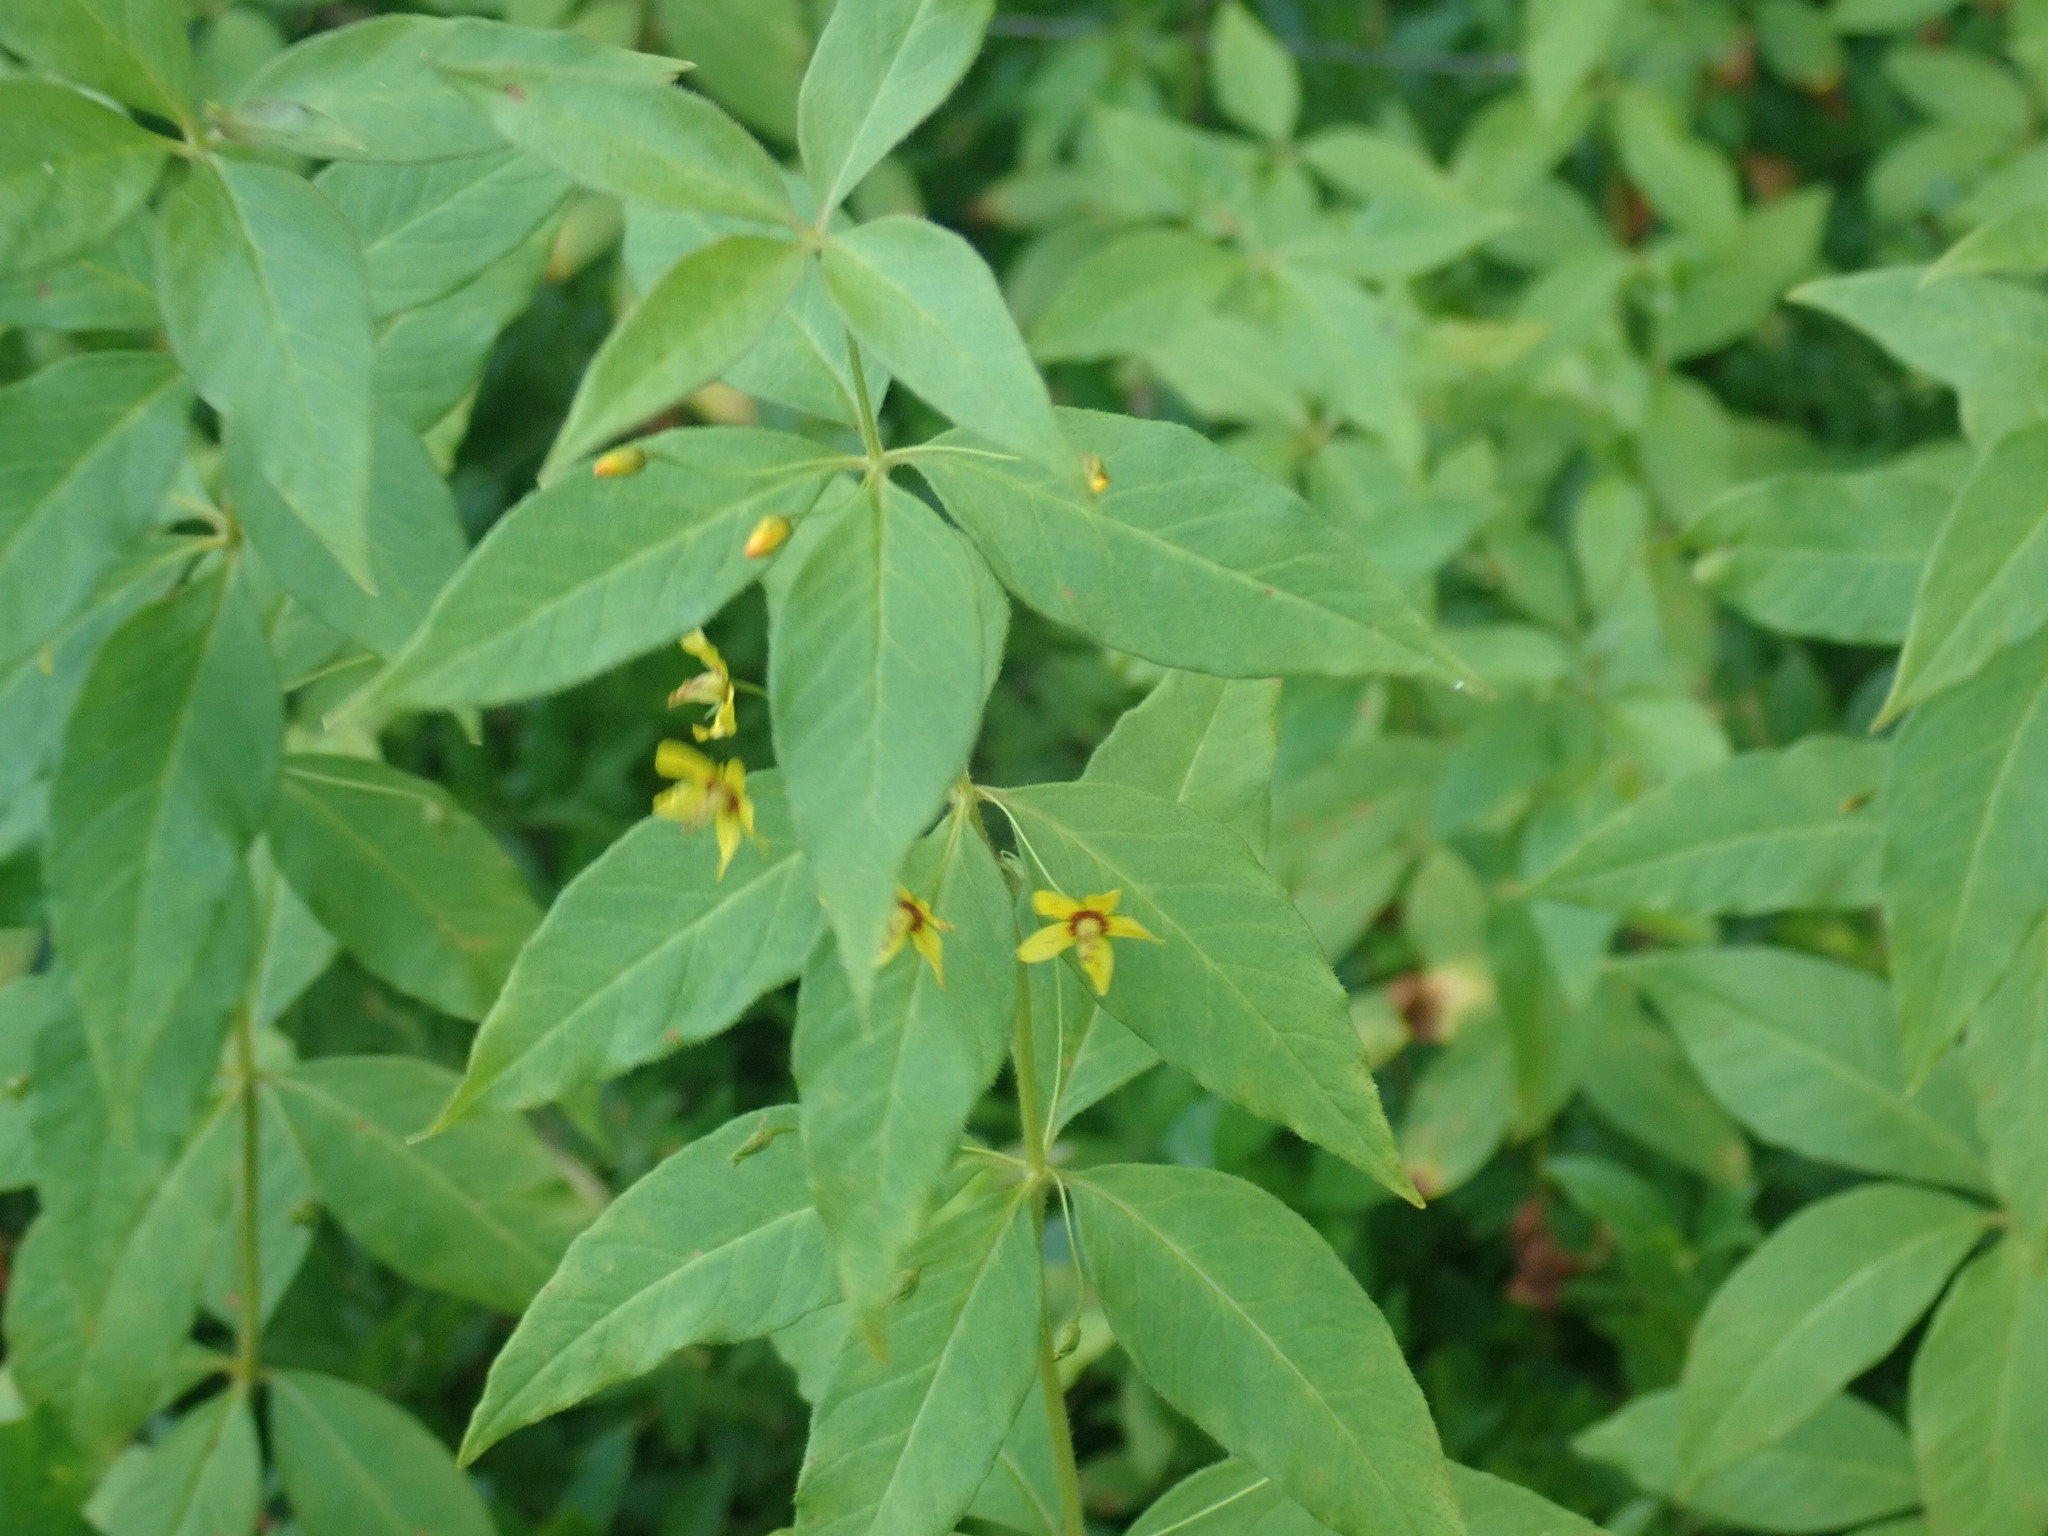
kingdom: Plantae
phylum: Tracheophyta
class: Magnoliopsida
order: Ericales
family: Primulaceae
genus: Lysimachia
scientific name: Lysimachia quadrifolia
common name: Whorled loosestrife
